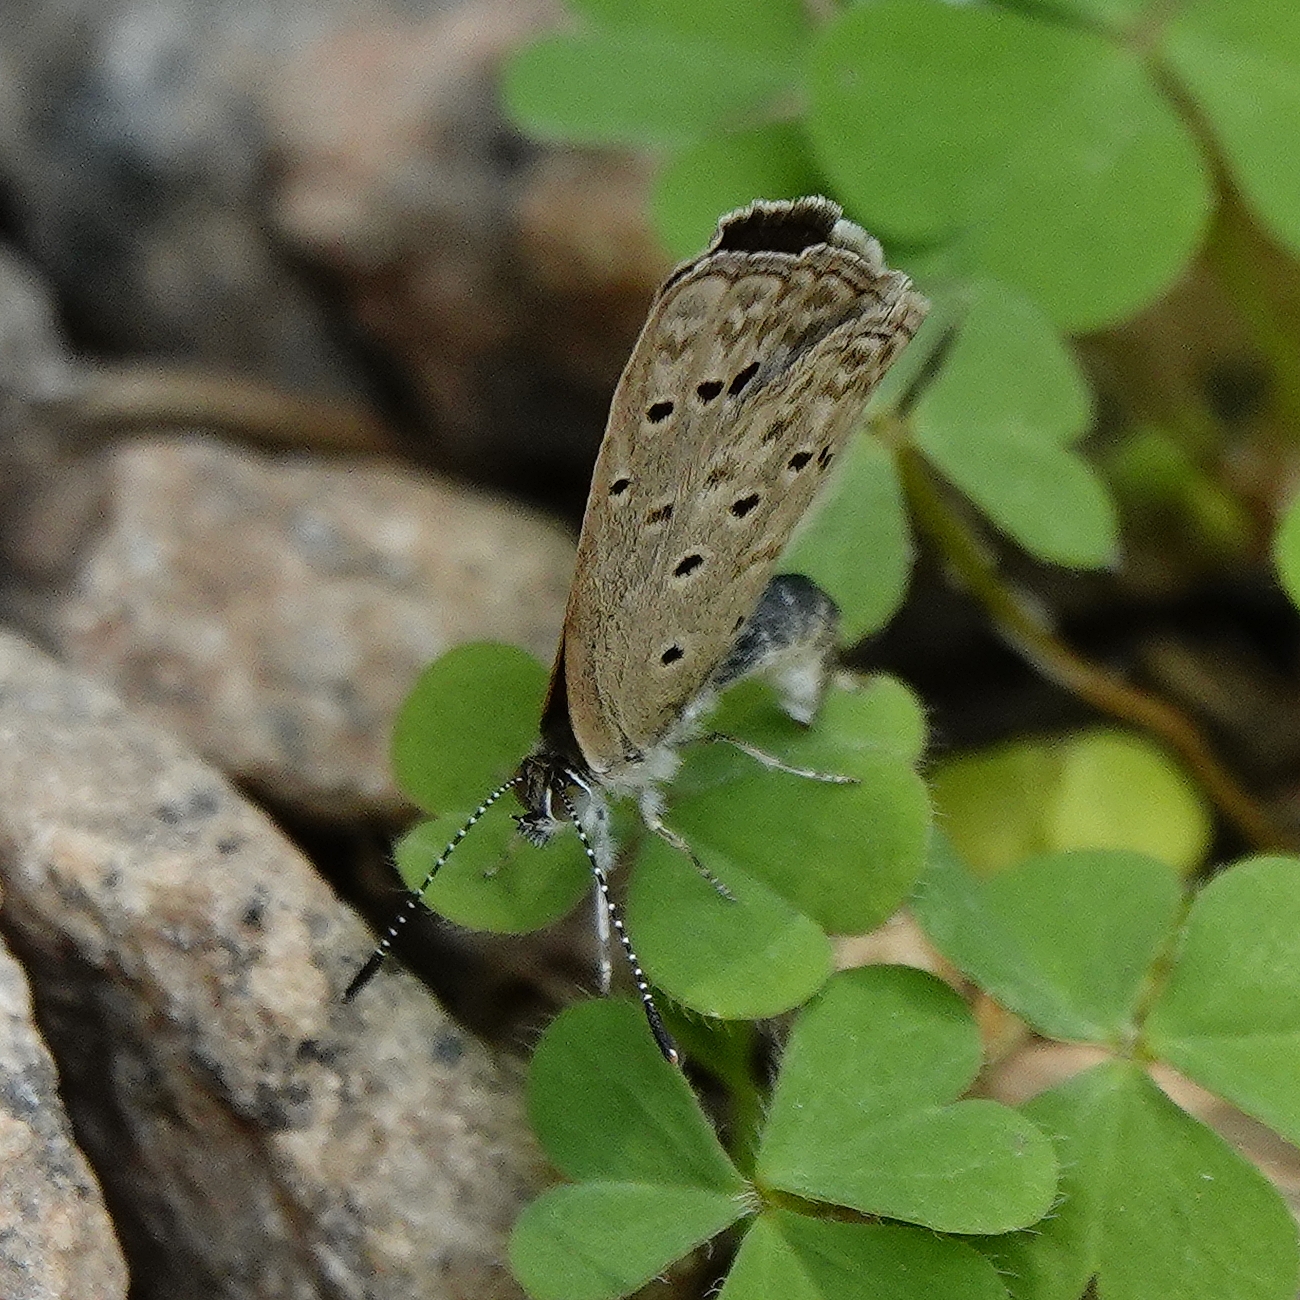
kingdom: Animalia
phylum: Arthropoda
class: Insecta
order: Lepidoptera
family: Lycaenidae
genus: Zizeeria
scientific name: Zizeeria knysna
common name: African grass blue
